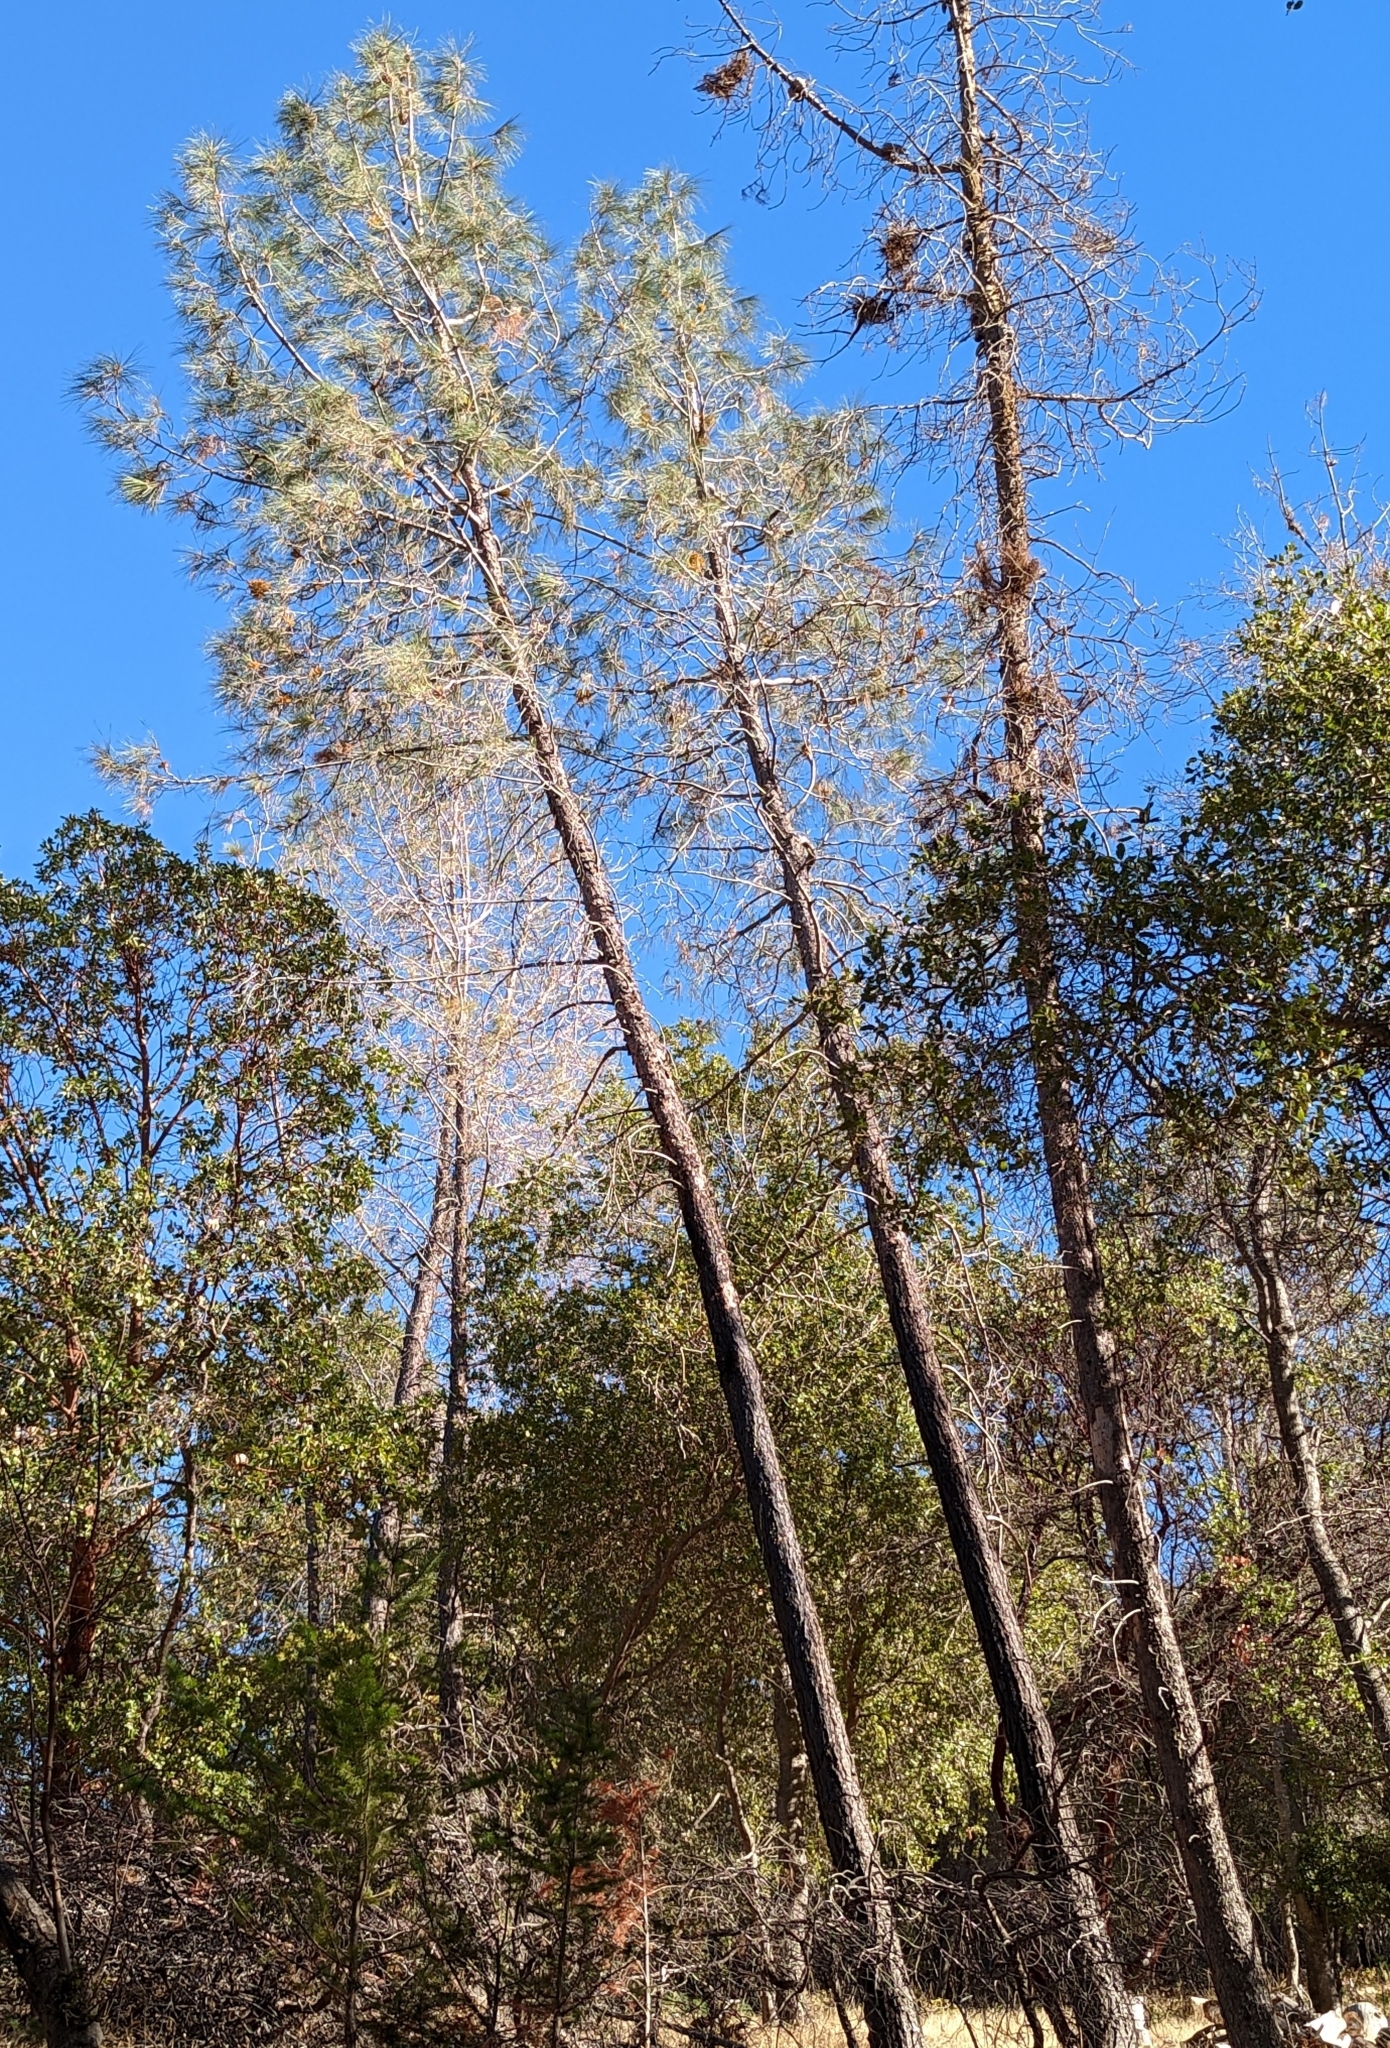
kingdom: Plantae
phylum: Tracheophyta
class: Pinopsida
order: Pinales
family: Pinaceae
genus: Pinus
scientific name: Pinus sabiniana
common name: Bull pine
